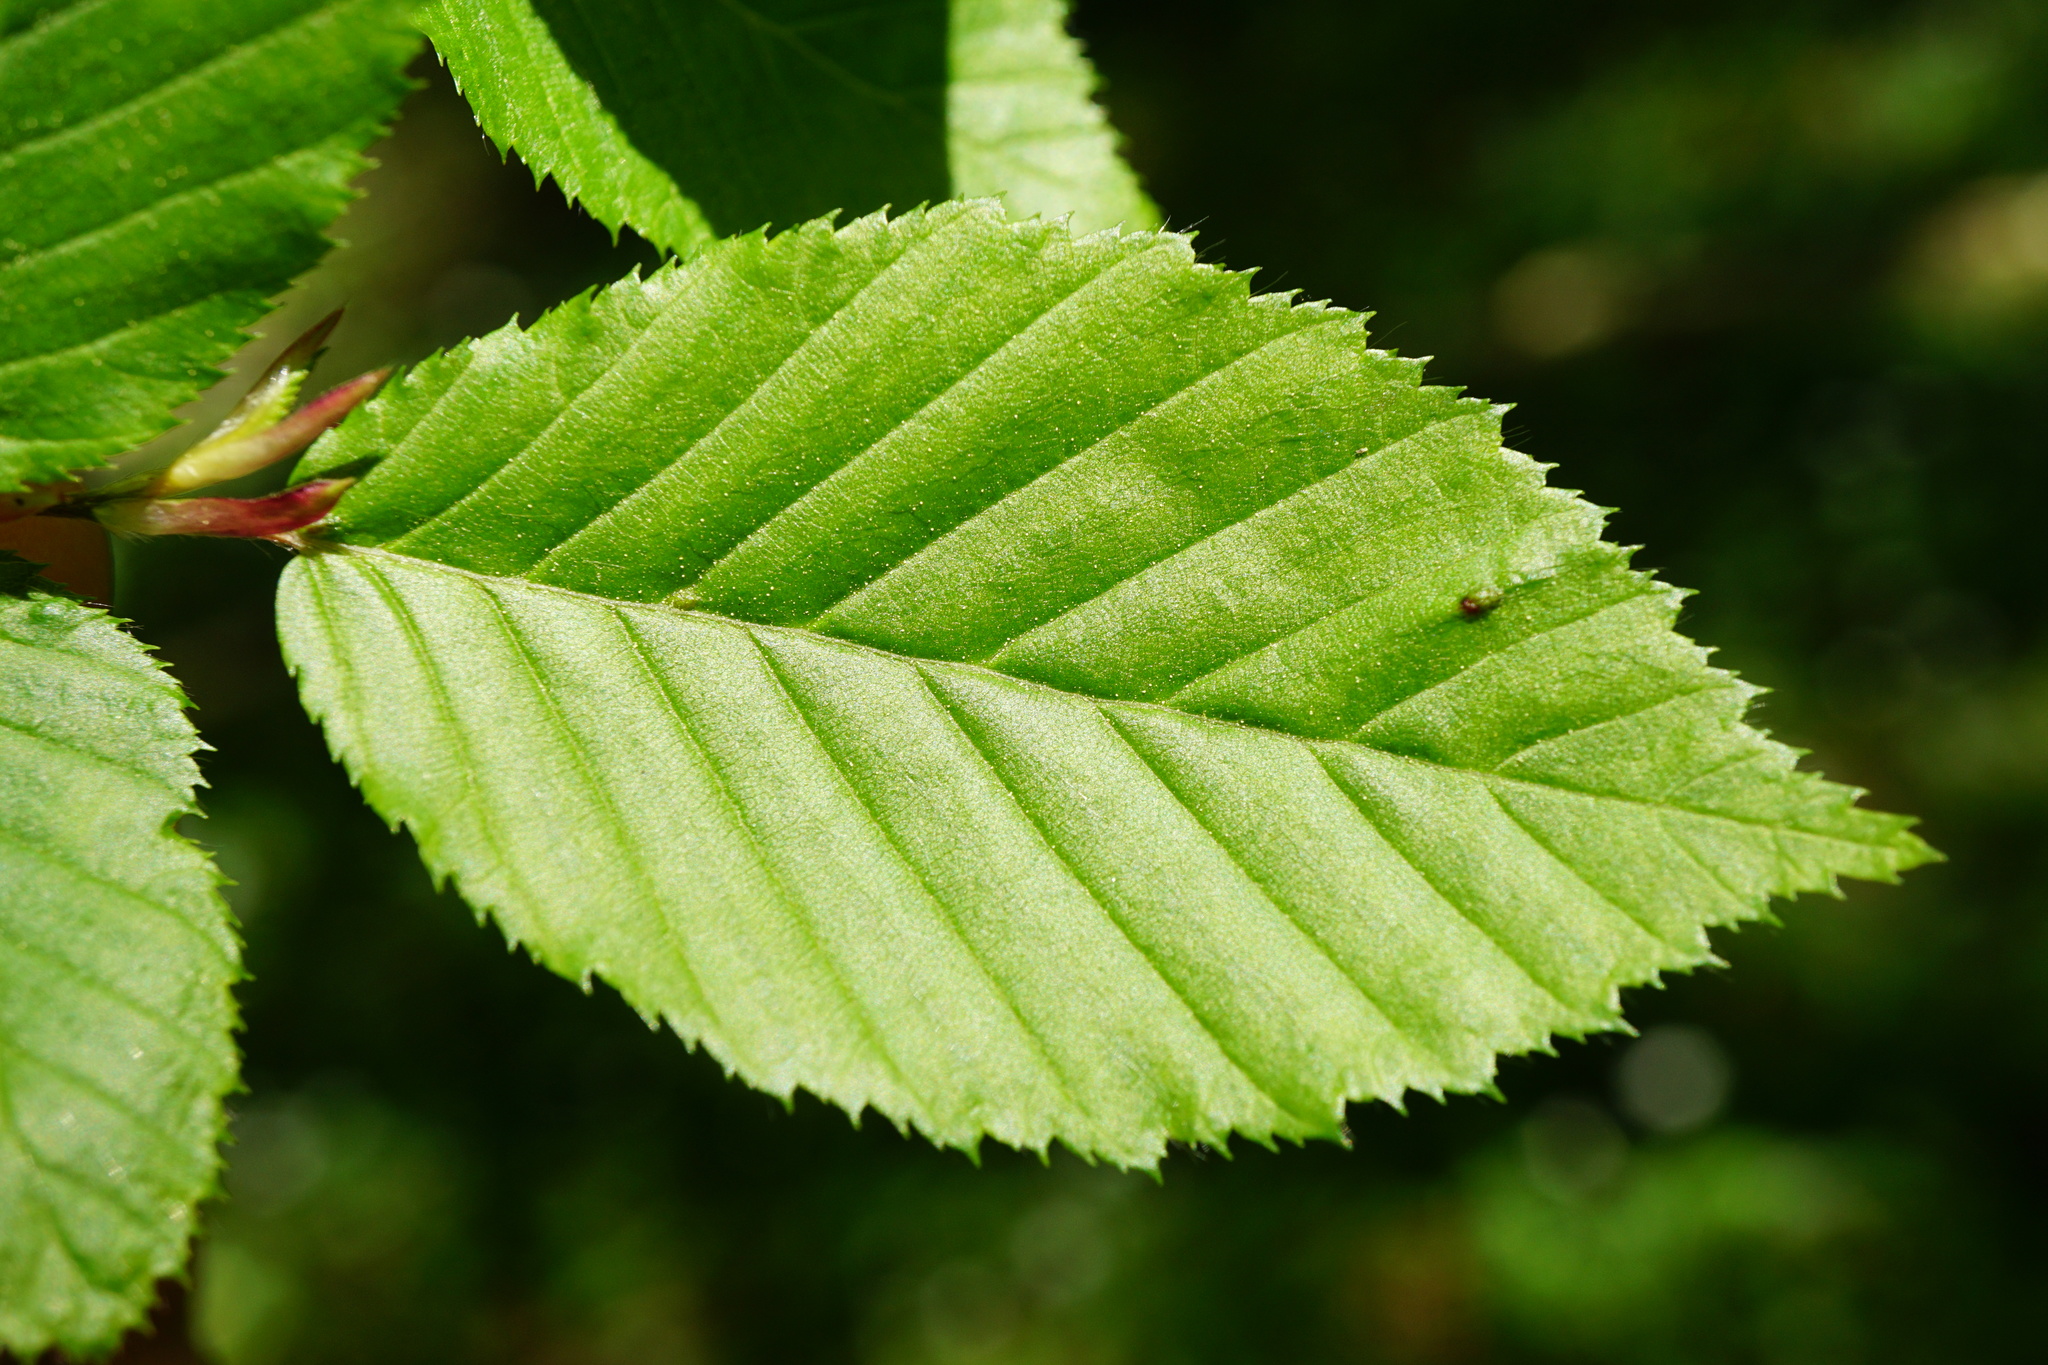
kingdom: Plantae
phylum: Tracheophyta
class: Magnoliopsida
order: Fagales
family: Betulaceae
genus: Carpinus
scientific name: Carpinus betulus
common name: Hornbeam
